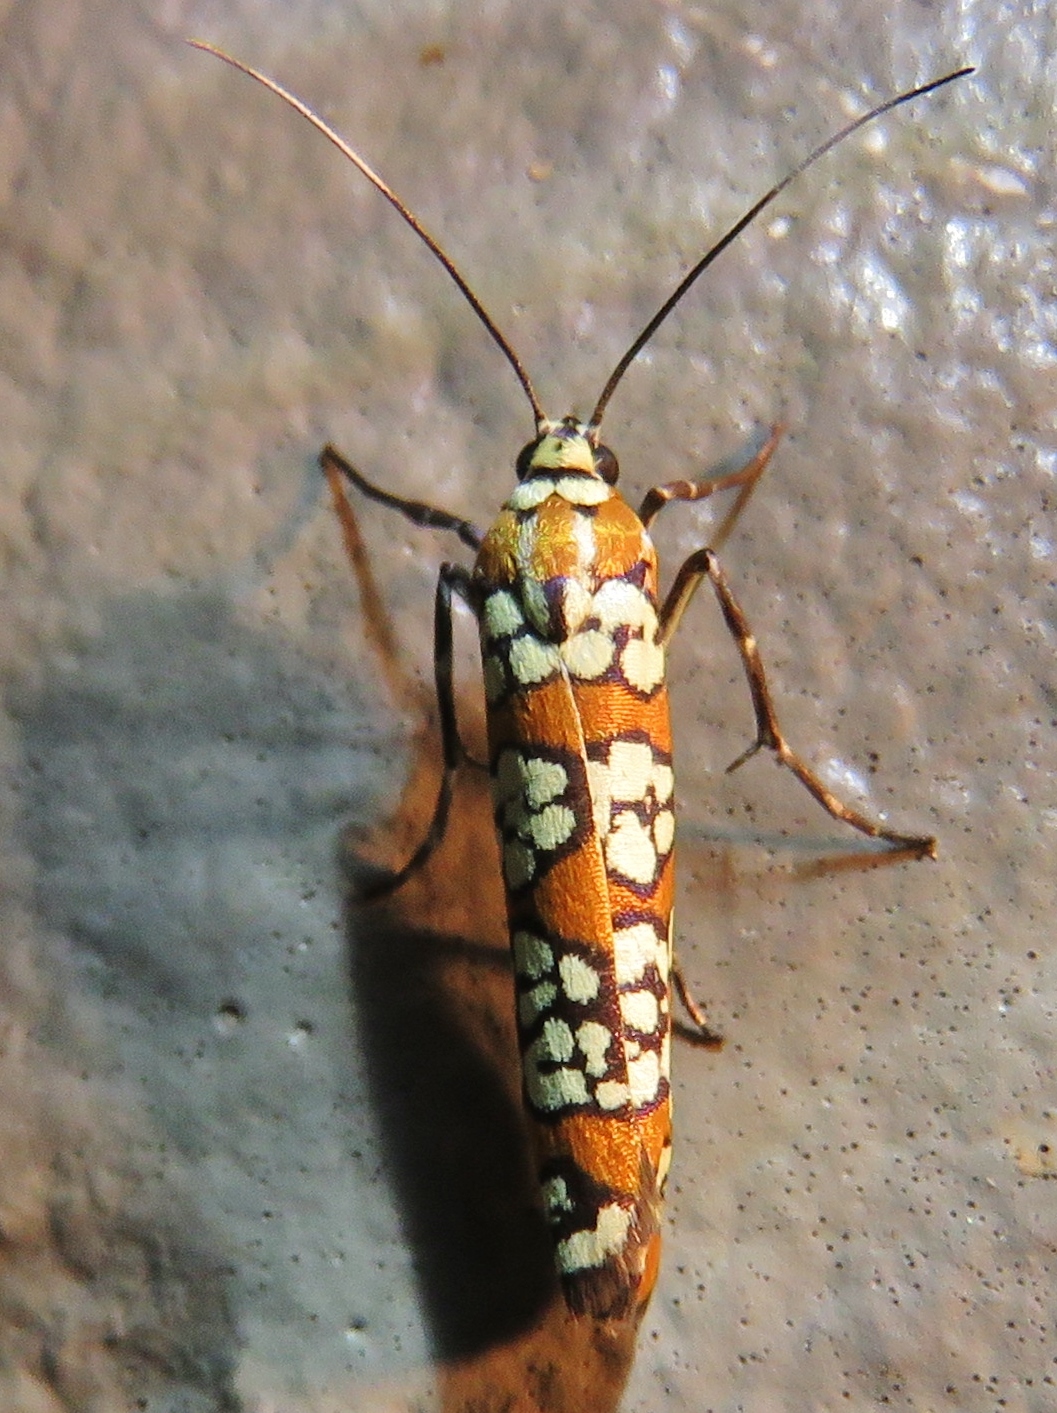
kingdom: Animalia
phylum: Arthropoda
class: Insecta
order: Lepidoptera
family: Attevidae
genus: Atteva
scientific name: Atteva punctella
